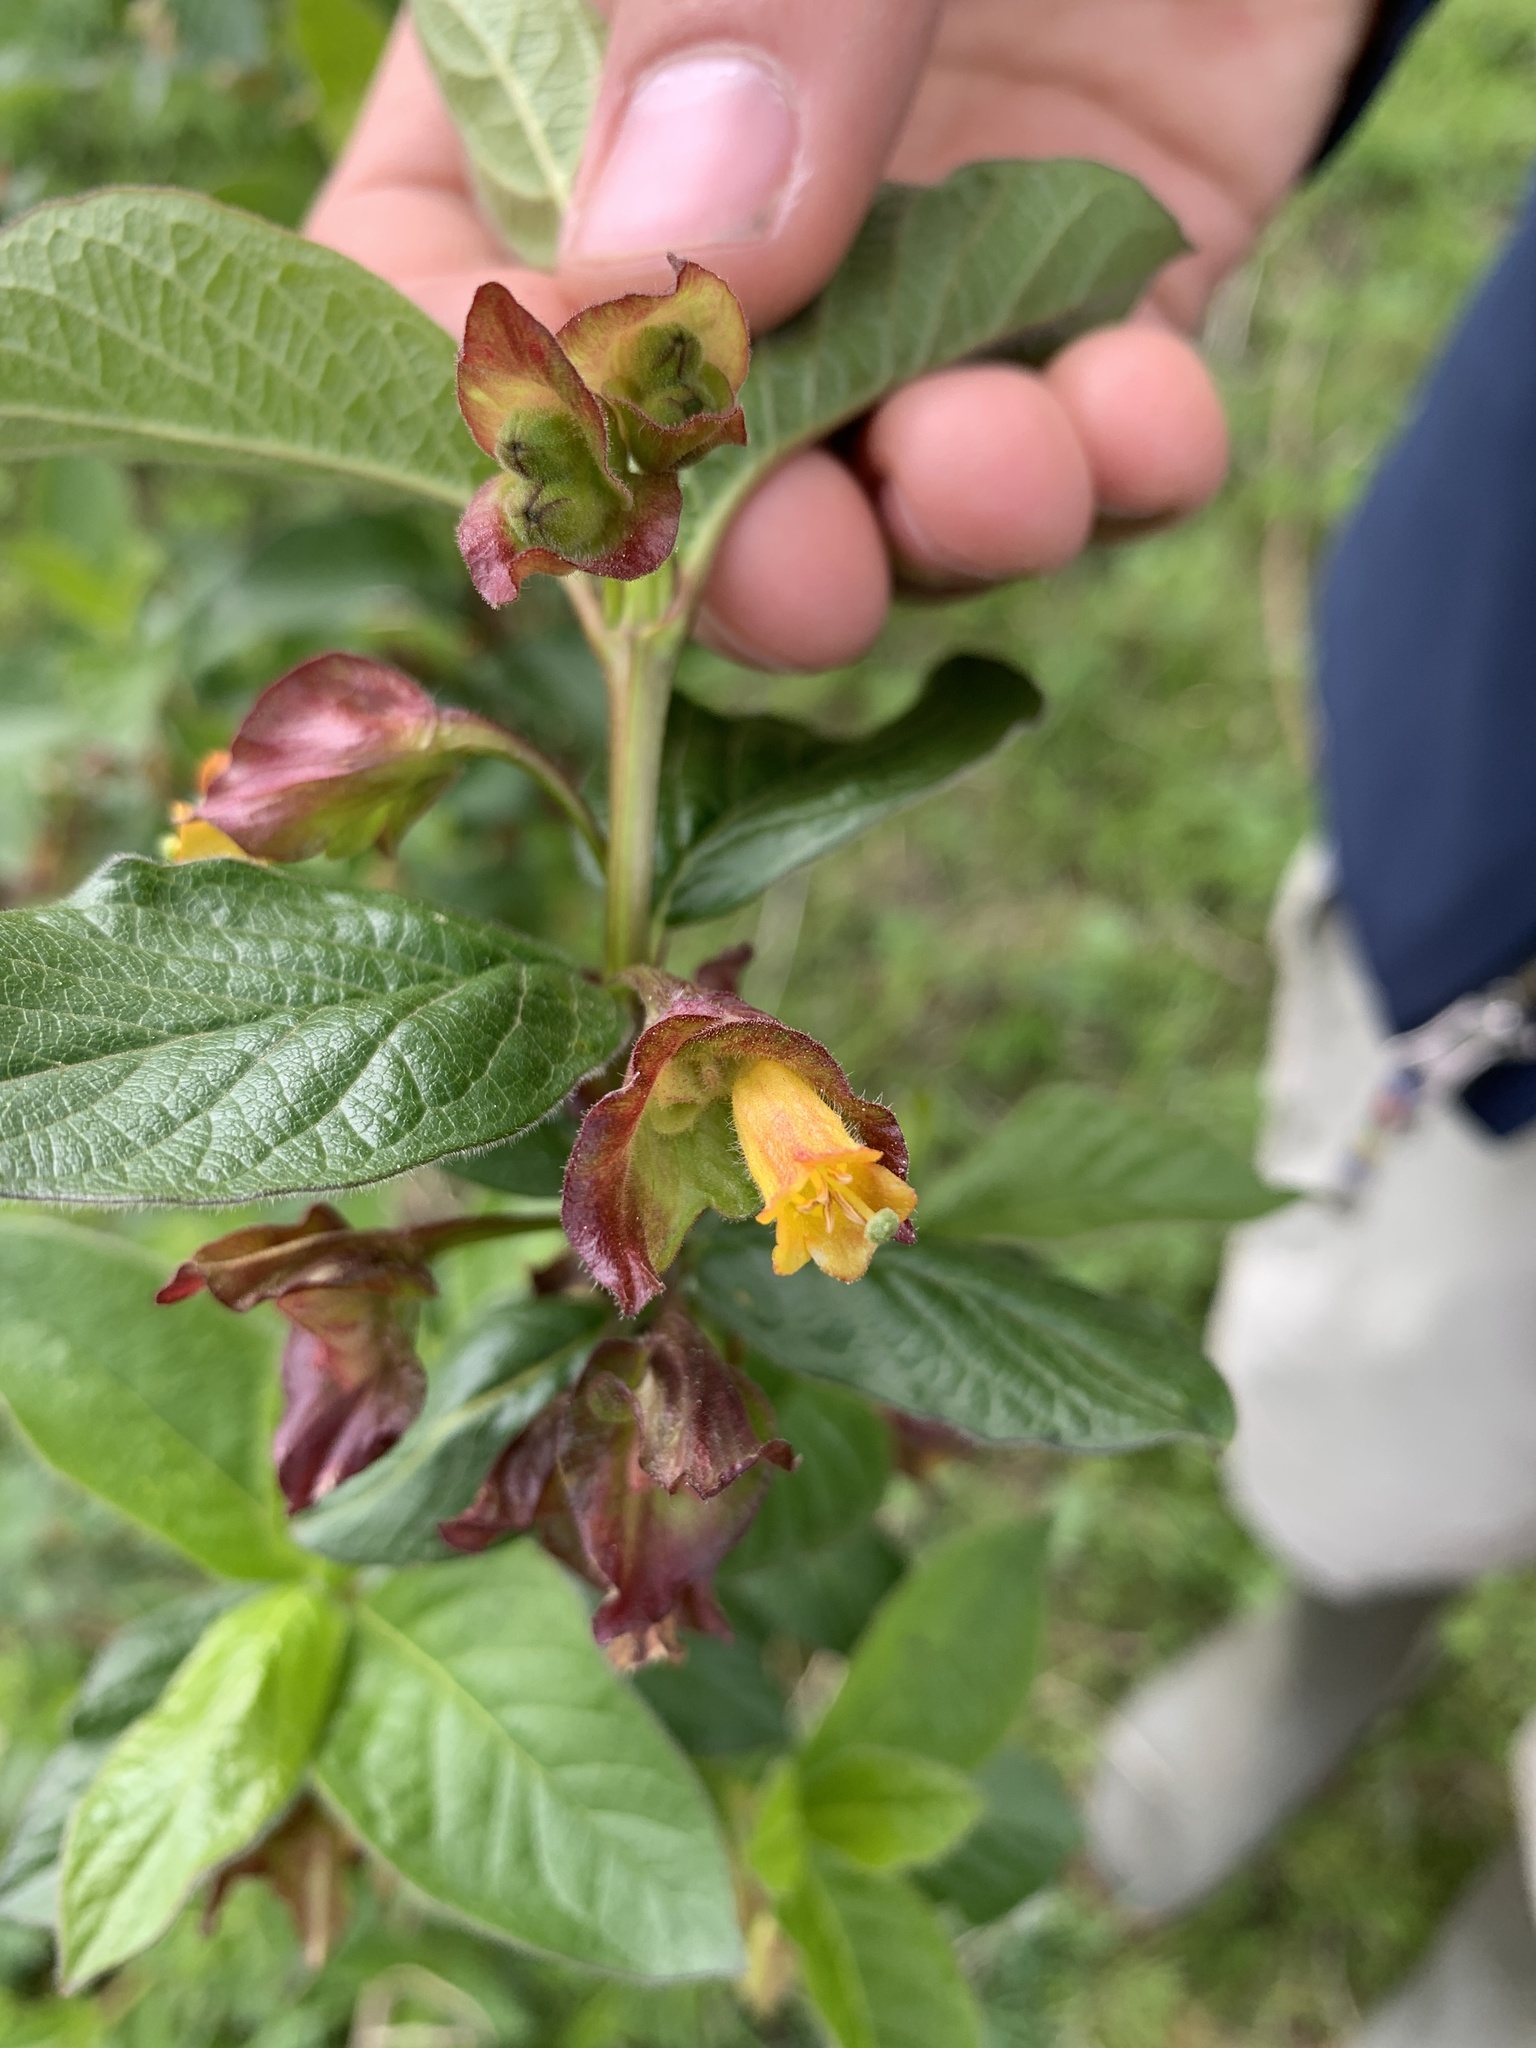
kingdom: Plantae
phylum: Tracheophyta
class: Magnoliopsida
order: Dipsacales
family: Caprifoliaceae
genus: Lonicera
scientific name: Lonicera involucrata
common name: Californian honeysuckle
